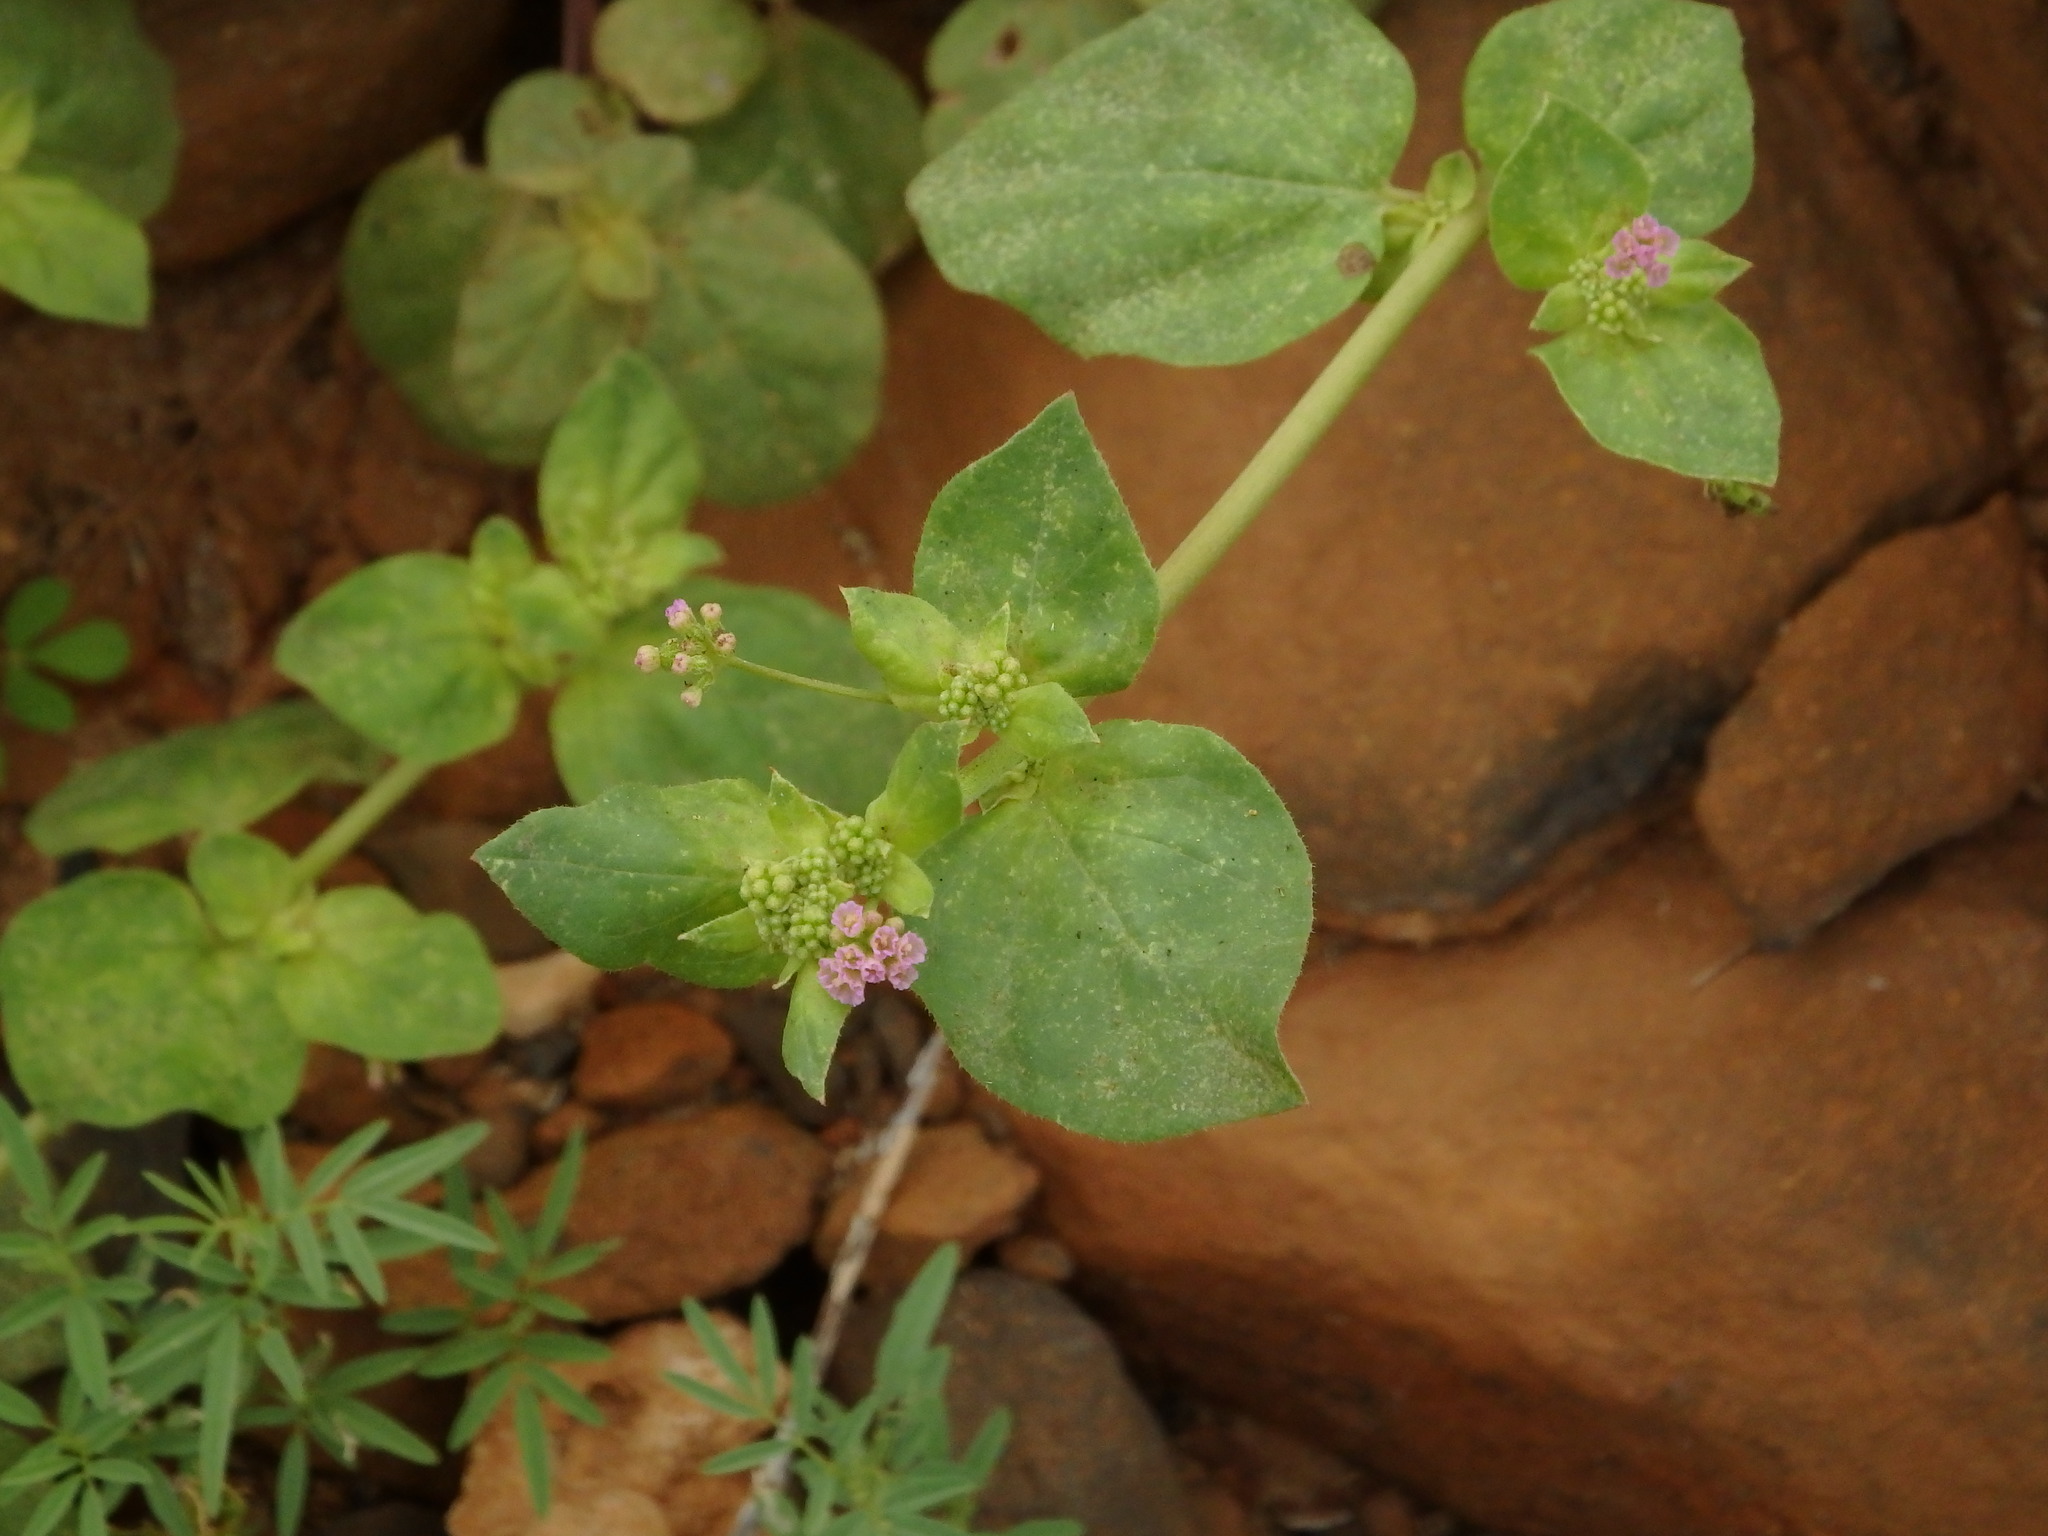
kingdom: Plantae
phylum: Tracheophyta
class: Magnoliopsida
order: Caryophyllales
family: Nyctaginaceae
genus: Boerhavia
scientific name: Boerhavia diffusa
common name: Red spiderling
